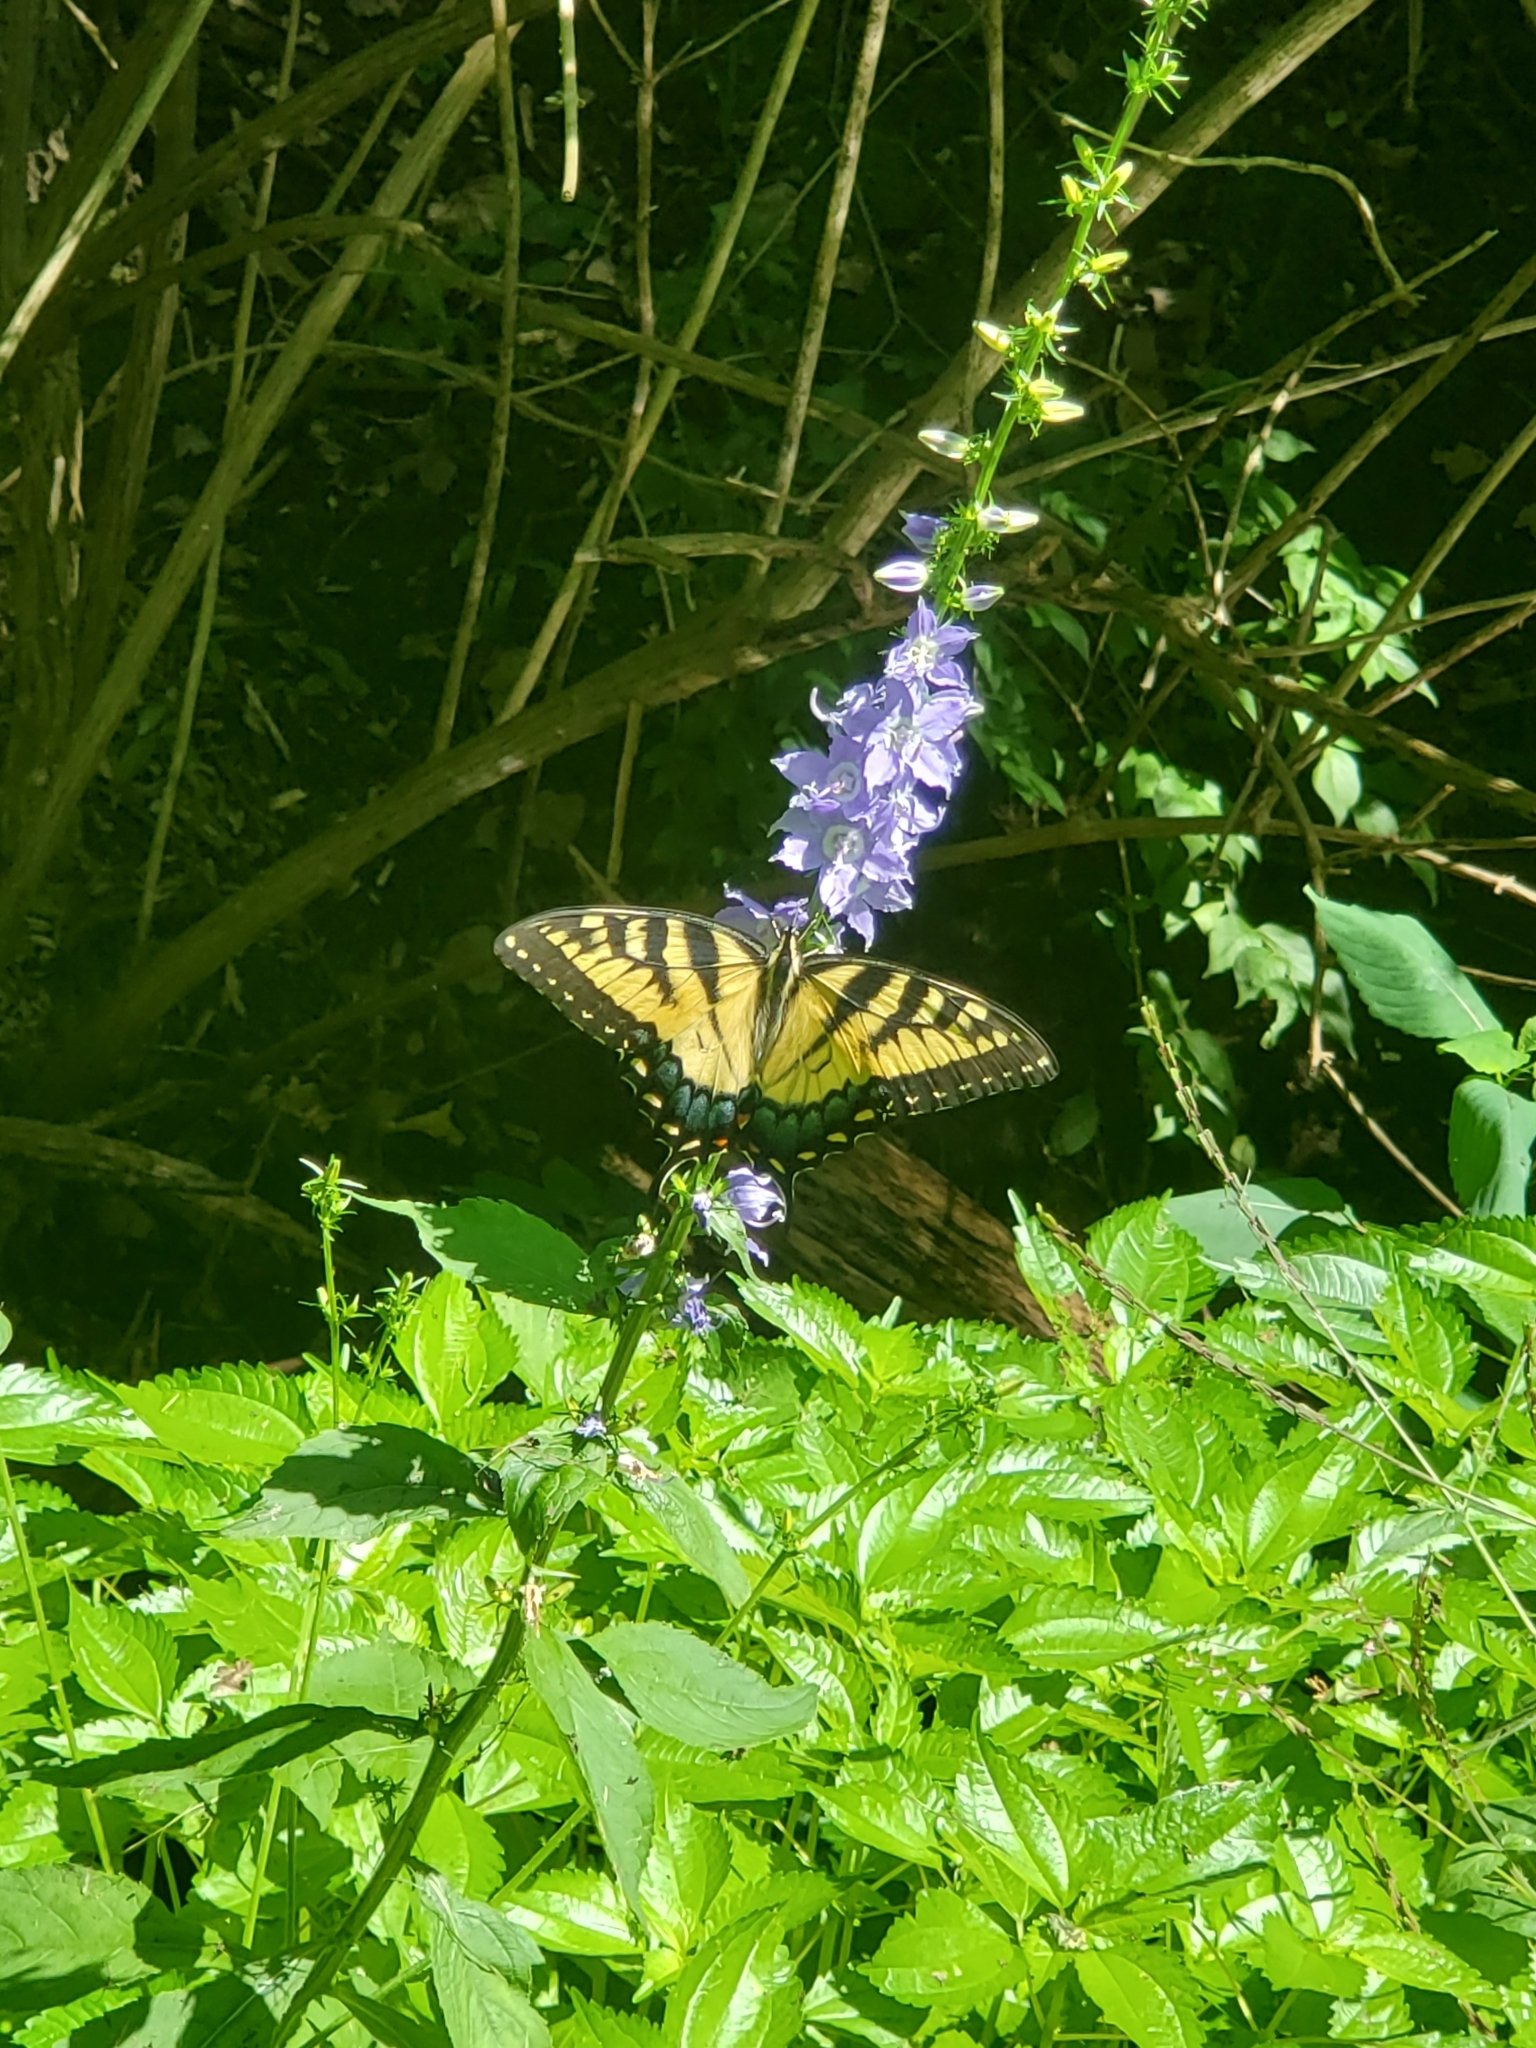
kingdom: Animalia
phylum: Arthropoda
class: Insecta
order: Lepidoptera
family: Papilionidae
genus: Papilio
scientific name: Papilio glaucus
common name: Tiger swallowtail
